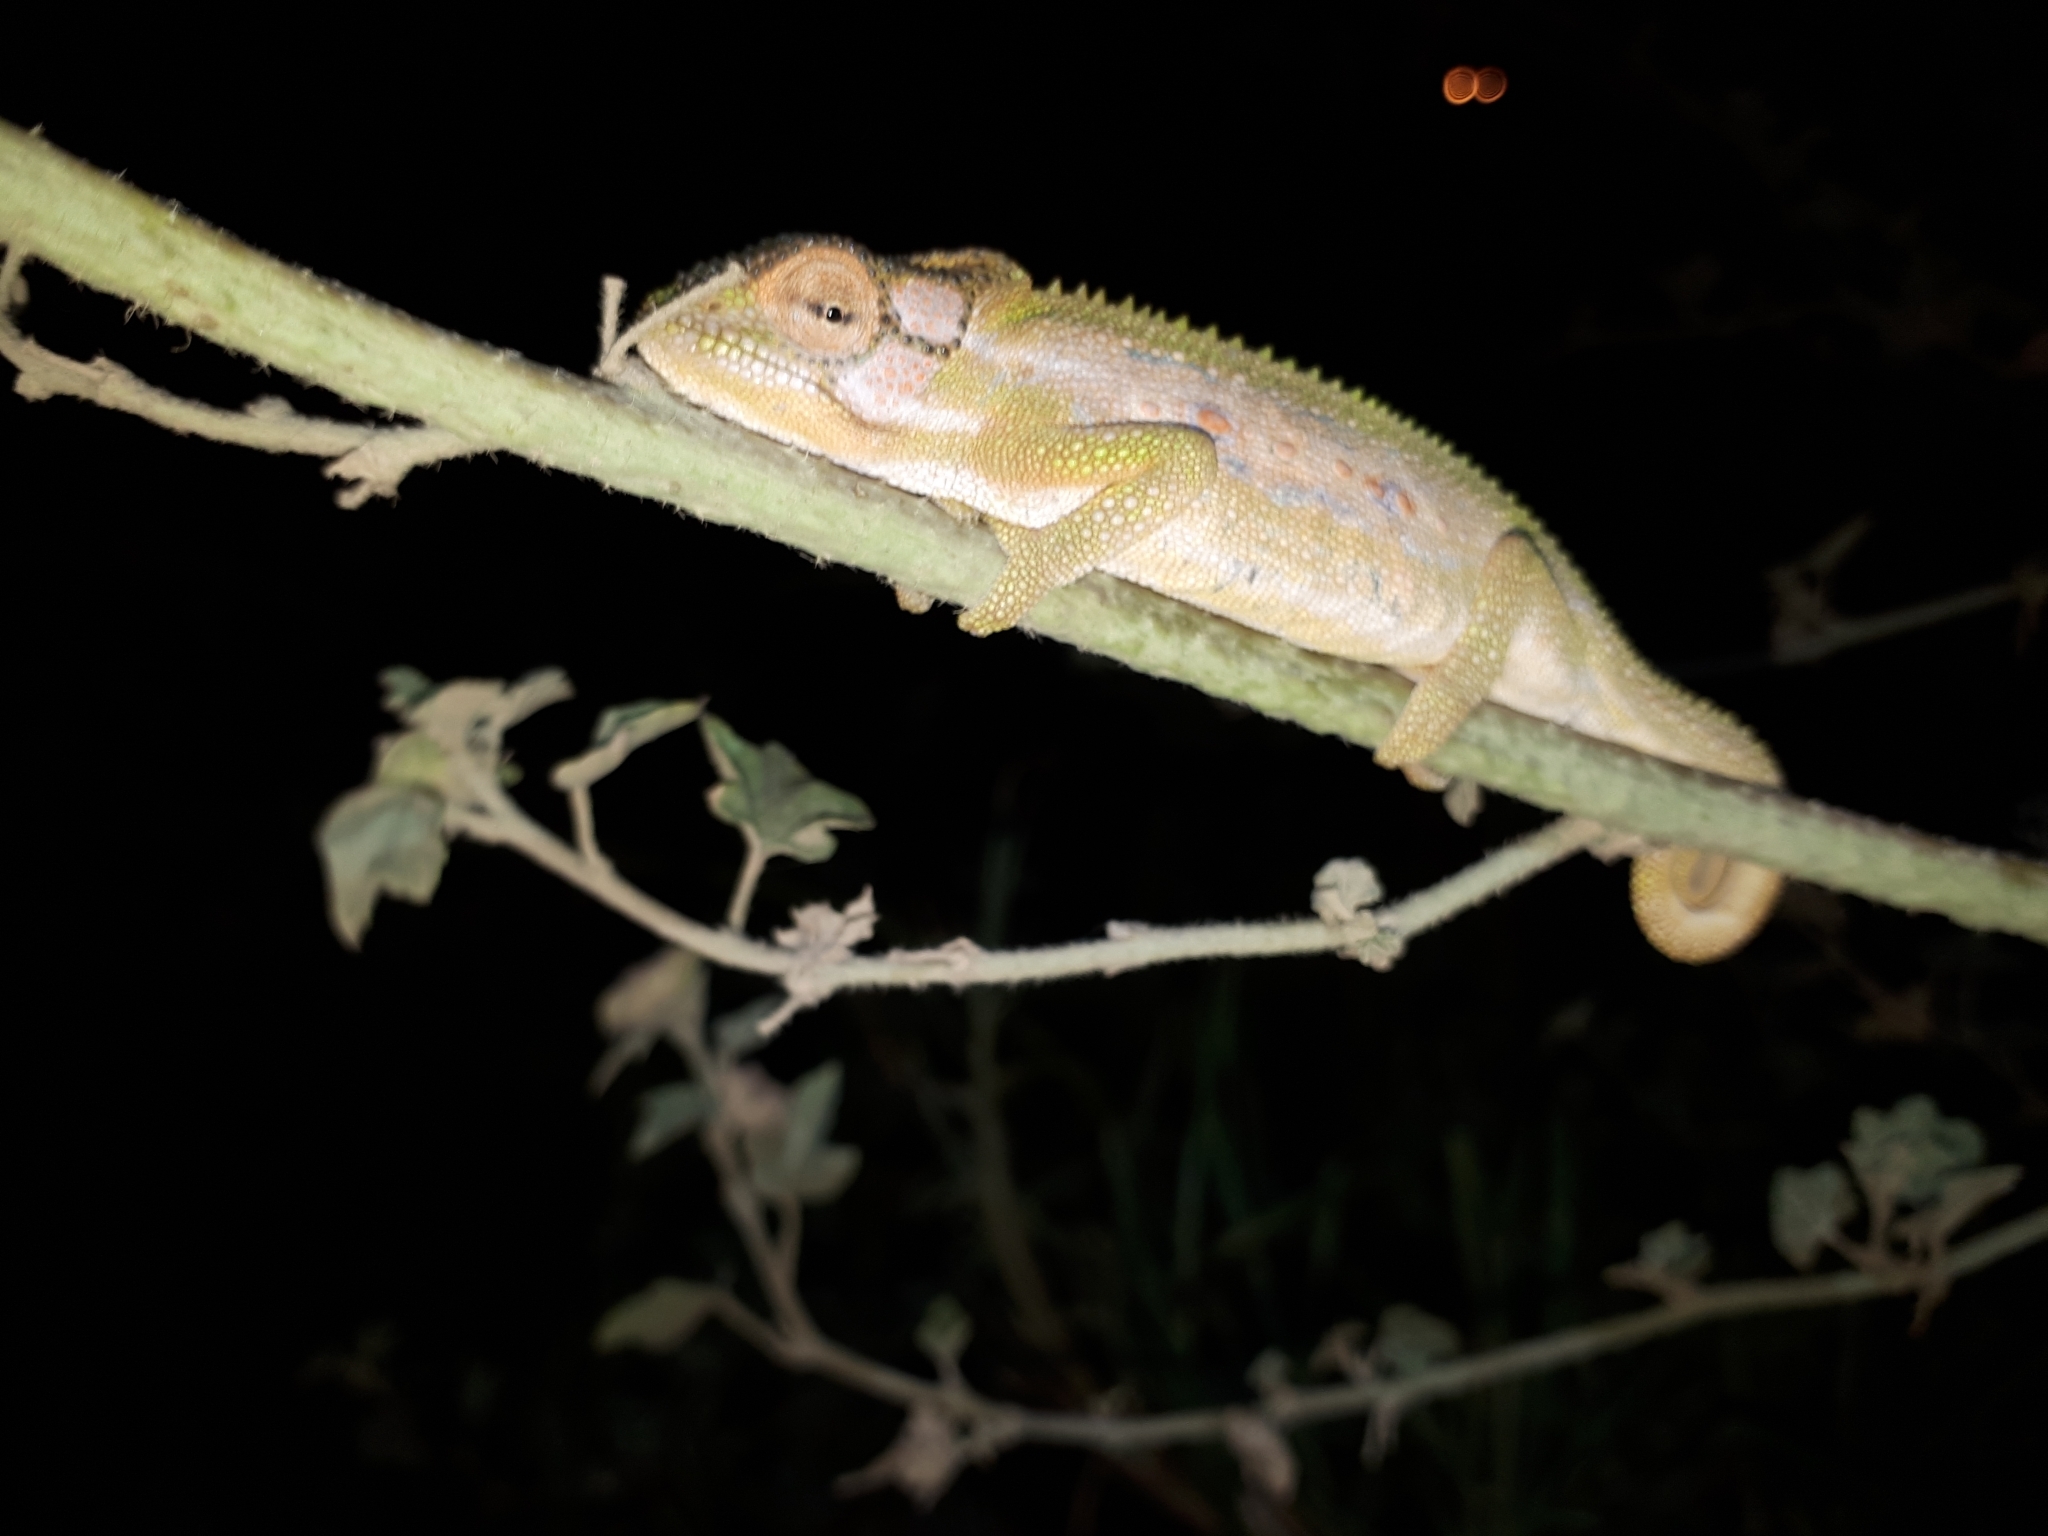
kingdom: Animalia
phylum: Chordata
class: Squamata
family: Chamaeleonidae
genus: Bradypodion
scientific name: Bradypodion pumilum
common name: Cape dwarf chameleon
